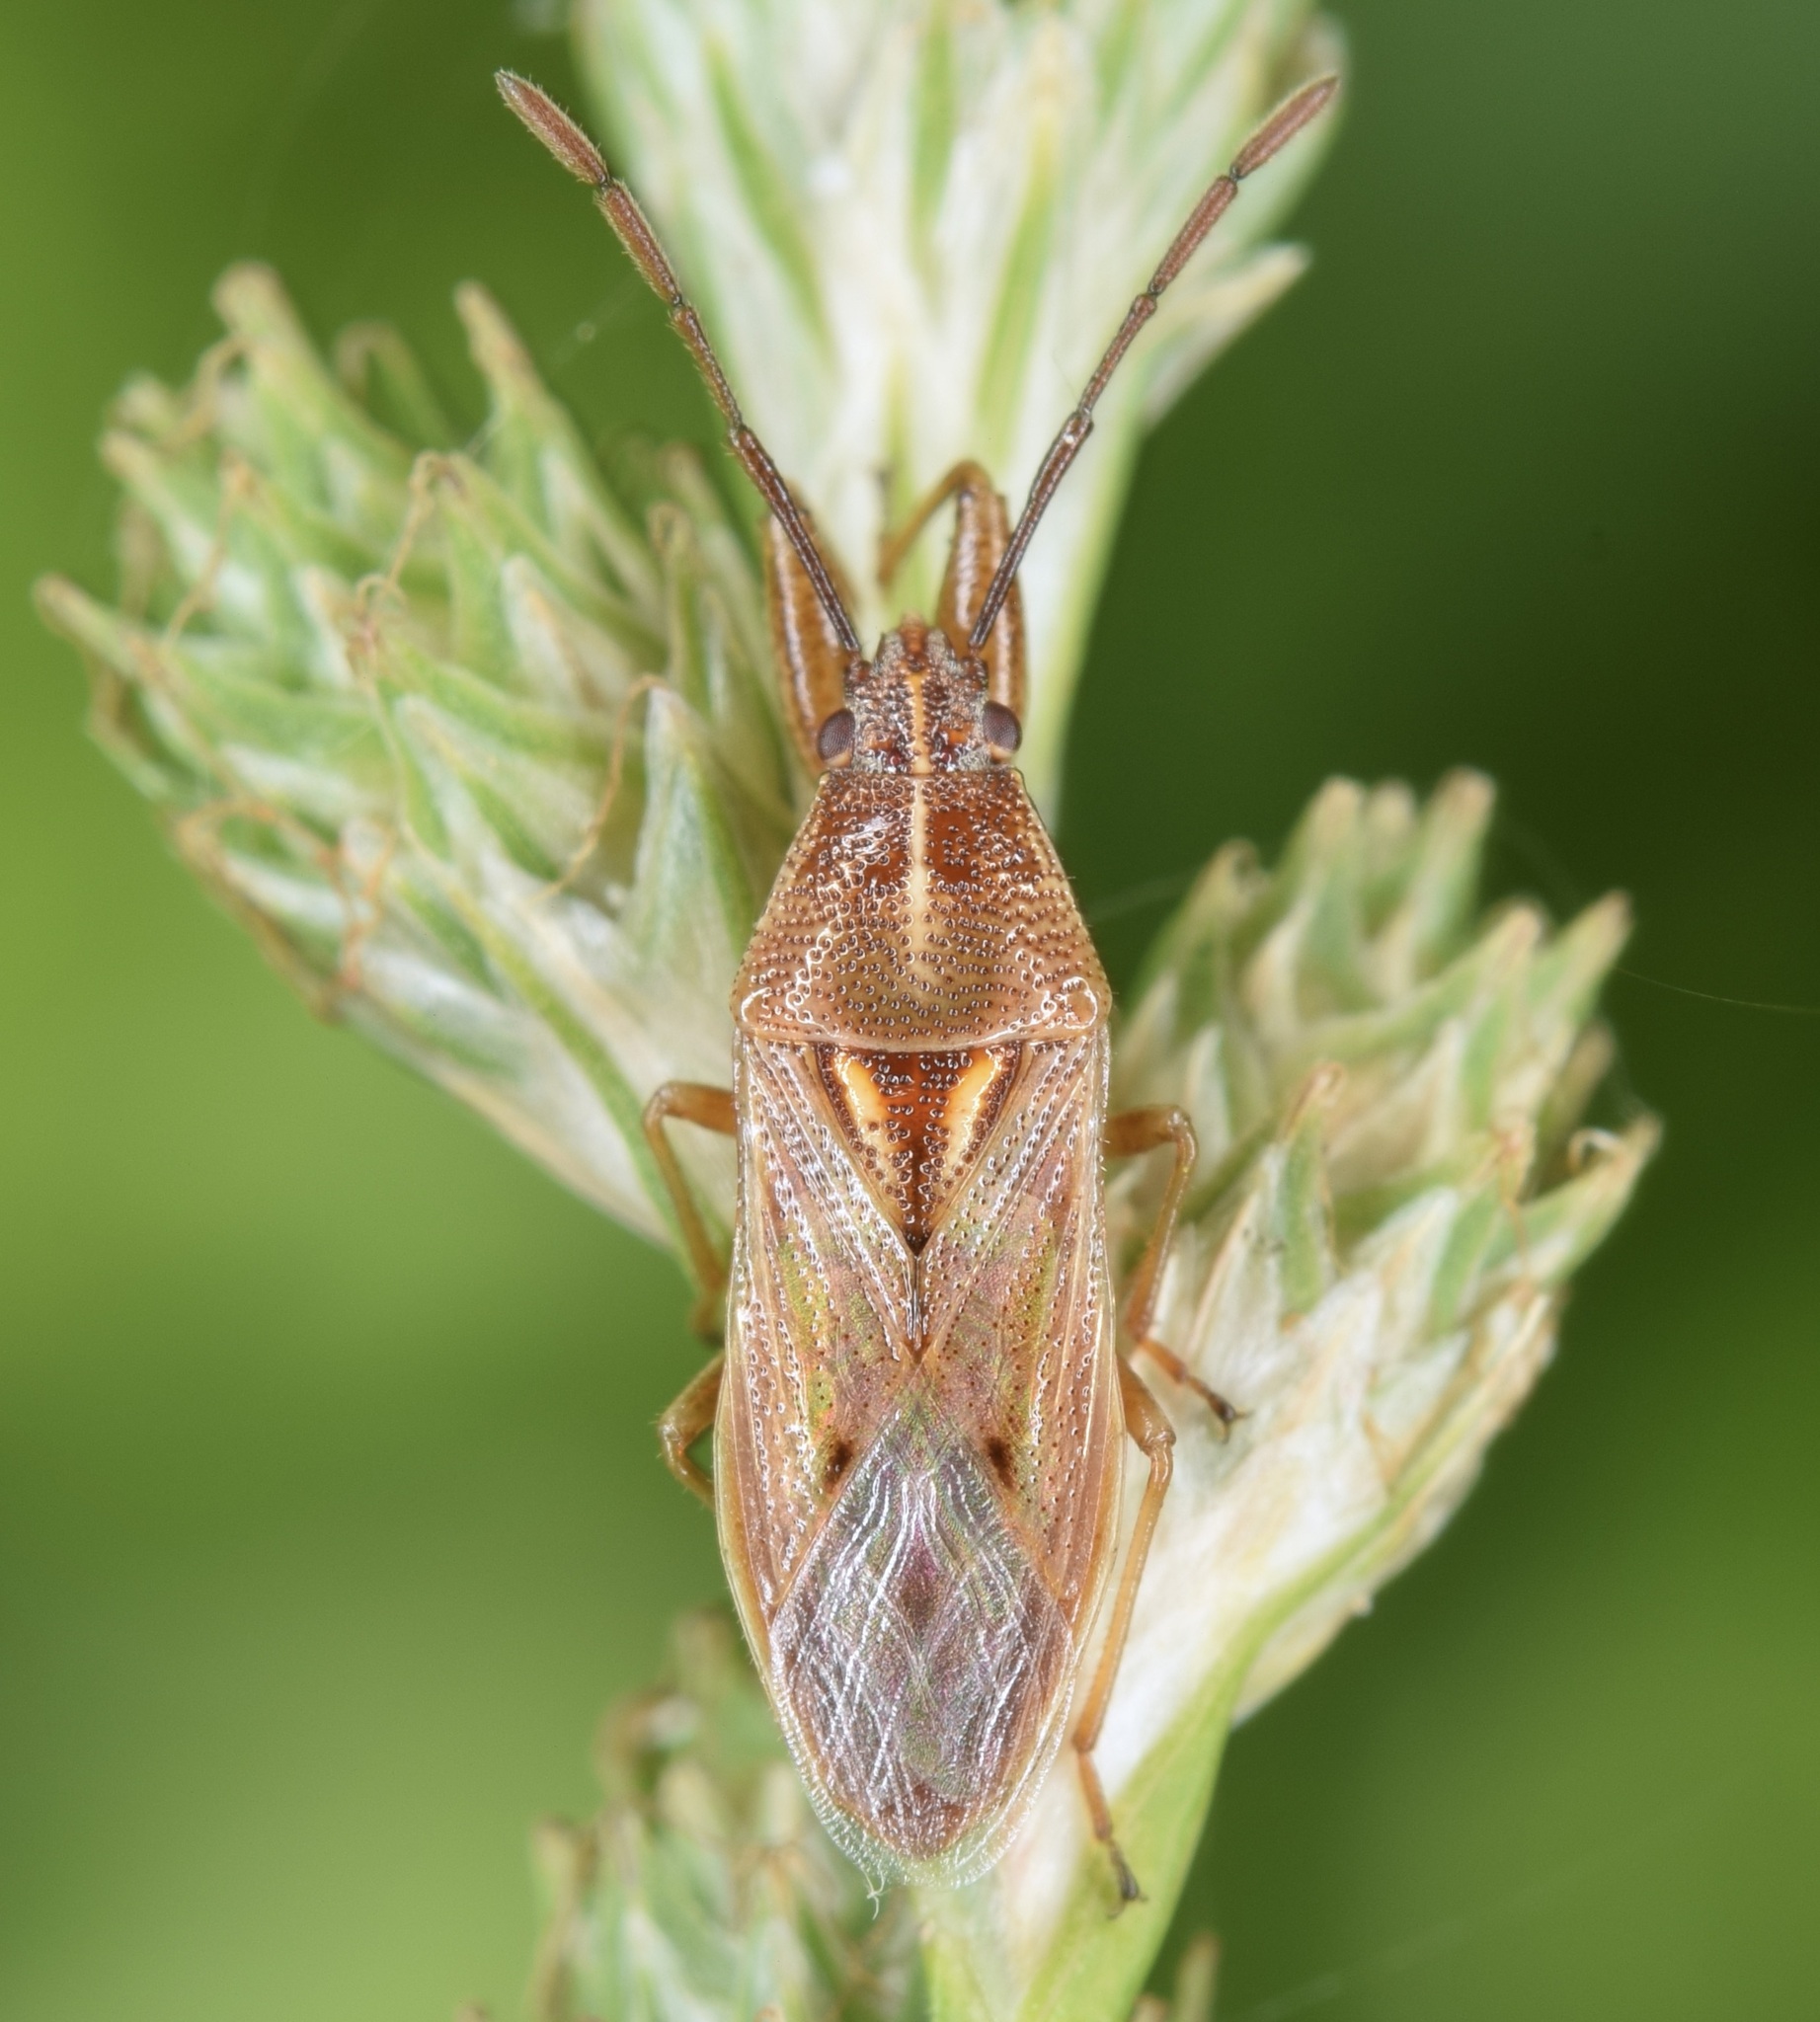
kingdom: Animalia
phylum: Arthropoda
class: Insecta
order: Hemiptera
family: Pachygronthidae
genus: Oedancala
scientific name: Oedancala crassimana
